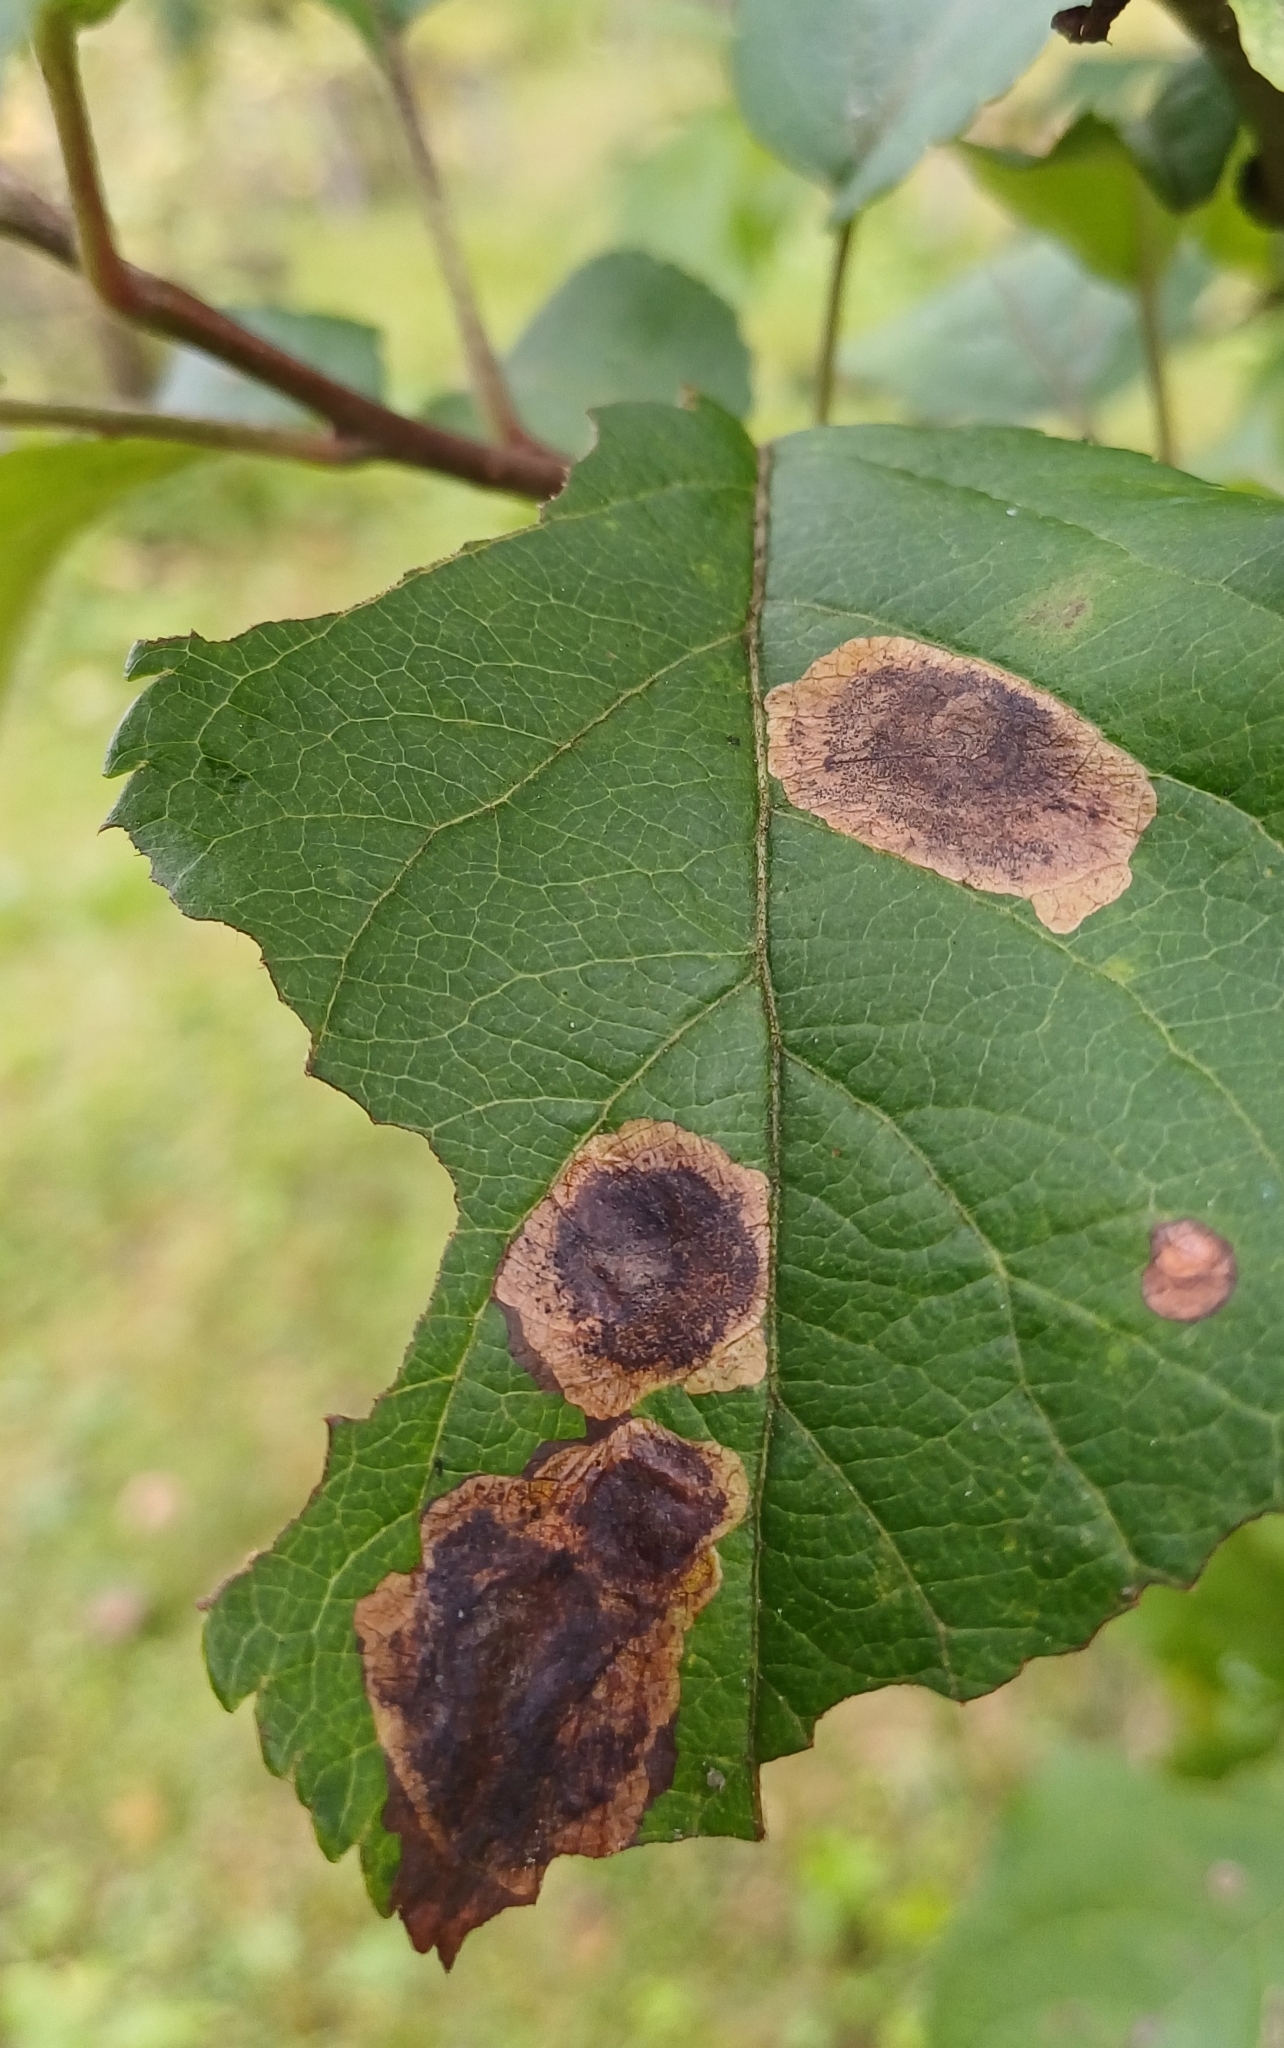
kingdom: Animalia
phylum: Arthropoda
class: Insecta
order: Lepidoptera
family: Lyonetiidae
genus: Leucoptera
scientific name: Leucoptera malifoliella
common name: Pear leaf blister moth
